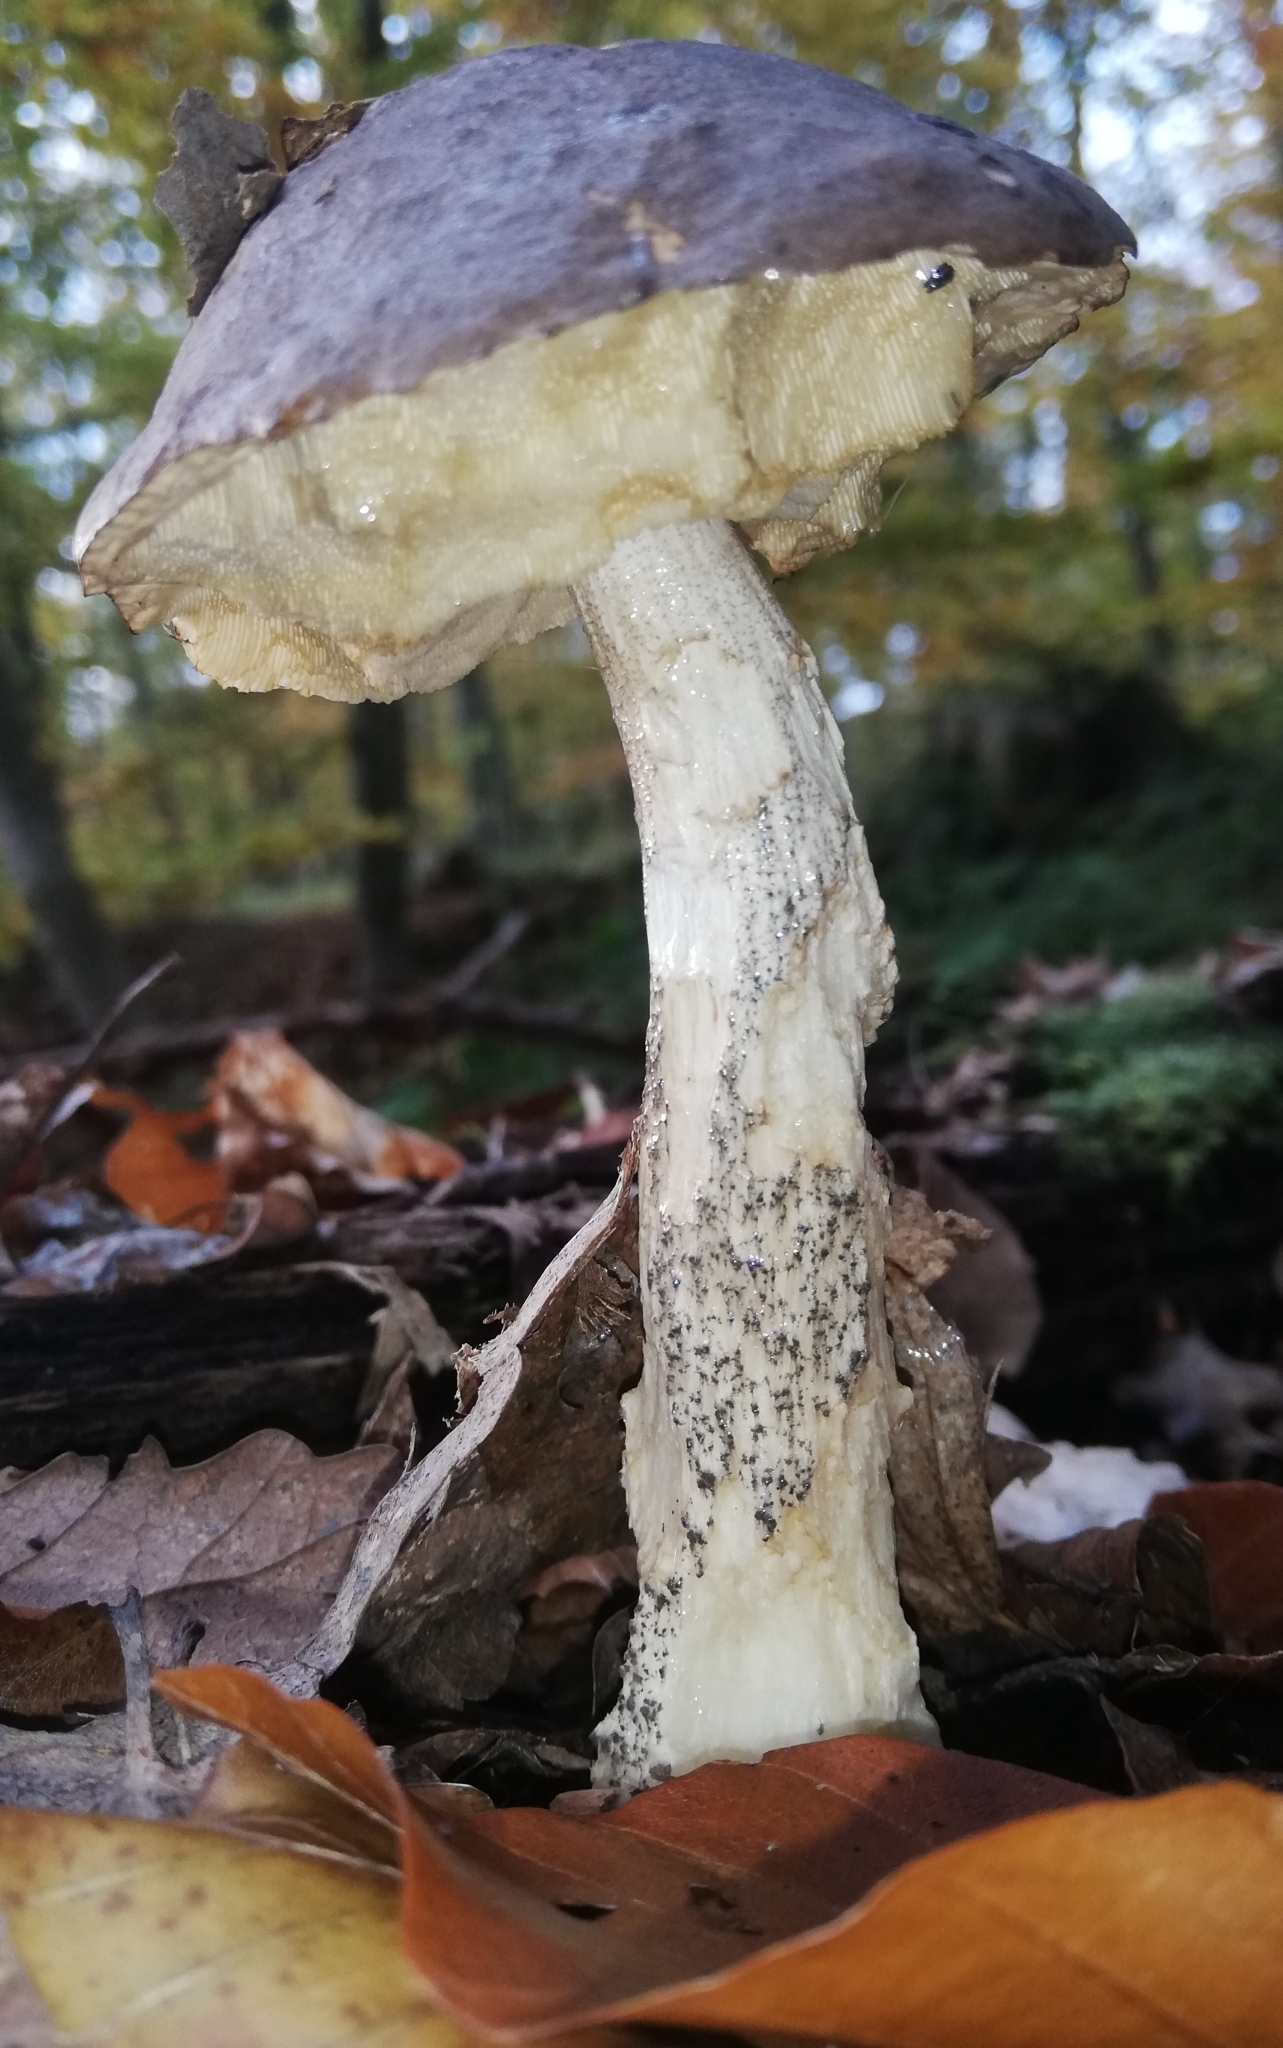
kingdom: Fungi
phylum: Basidiomycota
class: Agaricomycetes
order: Boletales
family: Boletaceae
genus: Leccinum
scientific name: Leccinum scabrum
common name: Blushing bolete
